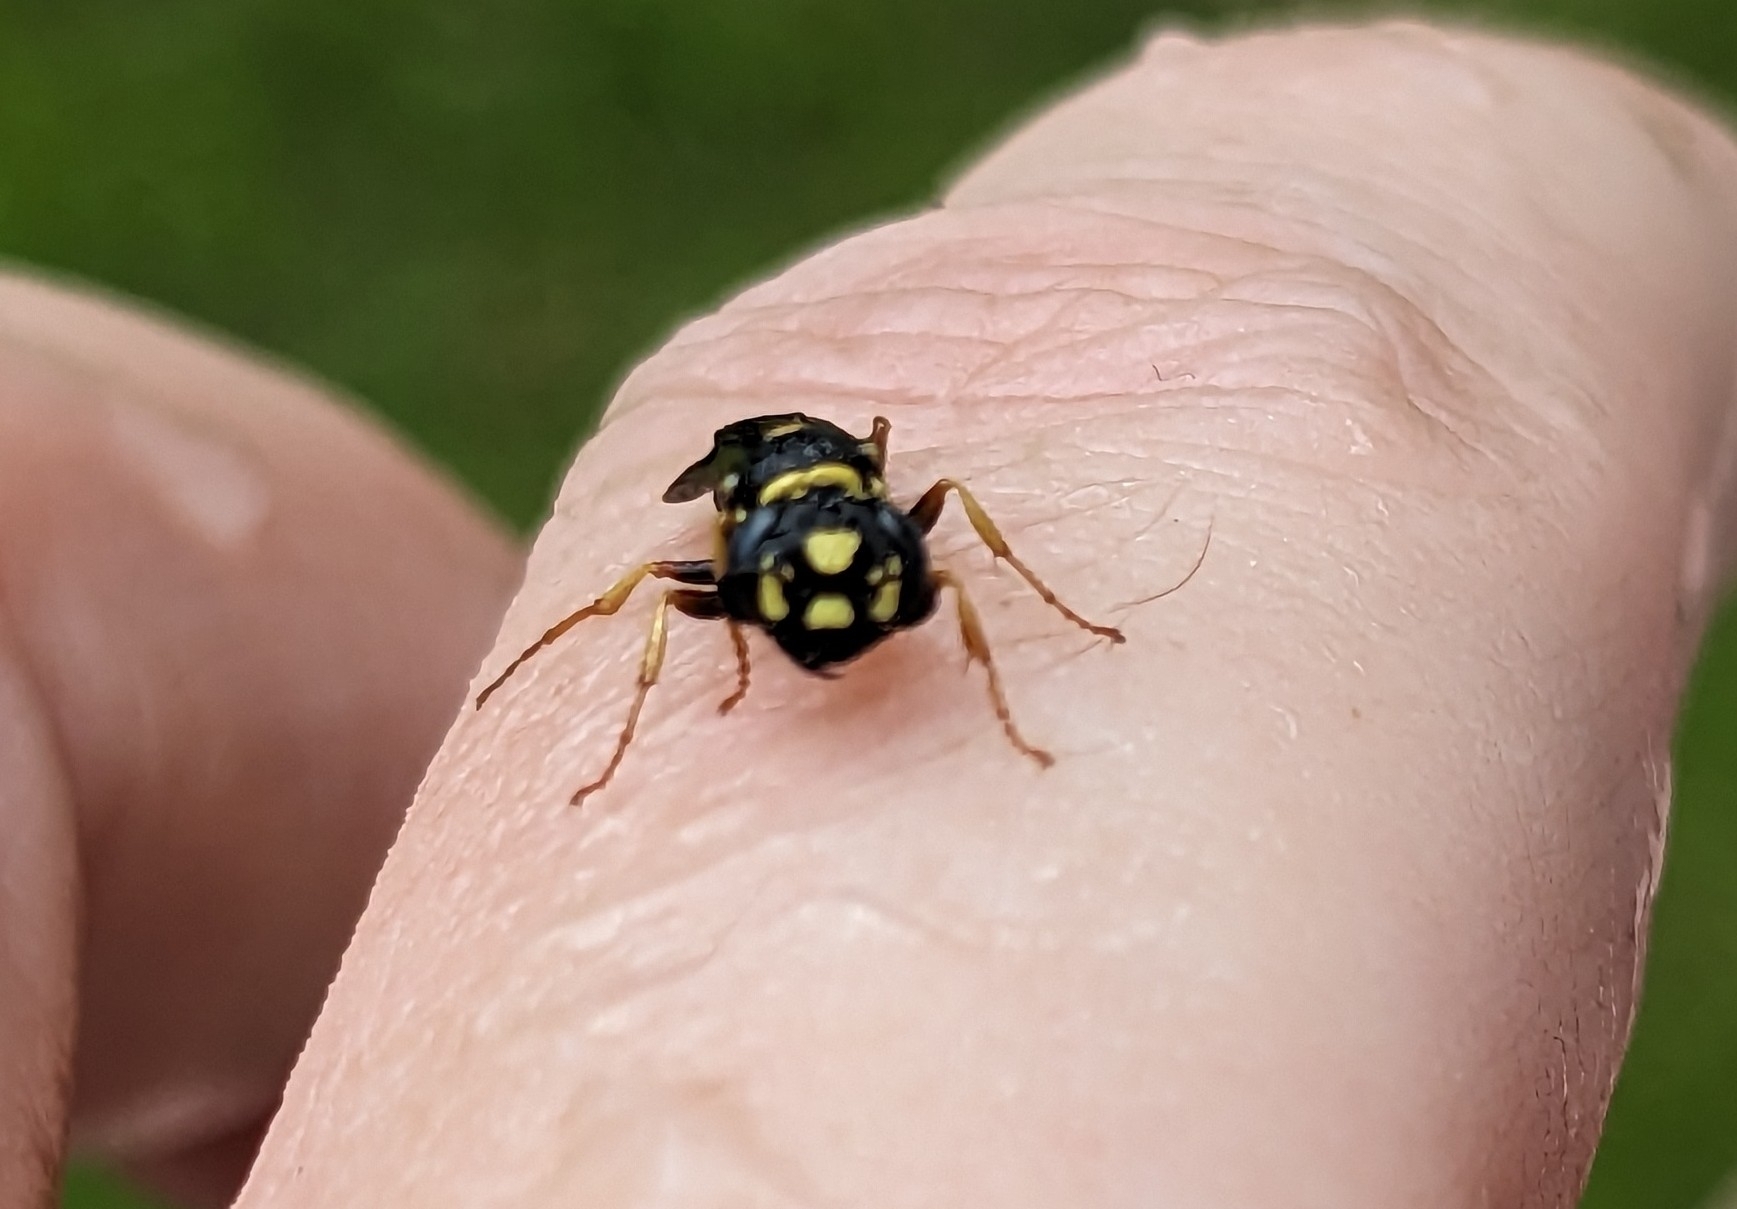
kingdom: Animalia
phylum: Arthropoda
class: Insecta
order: Hymenoptera
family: Crabronidae
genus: Philanthus
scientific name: Philanthus gibbosus
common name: Humped beewolf
